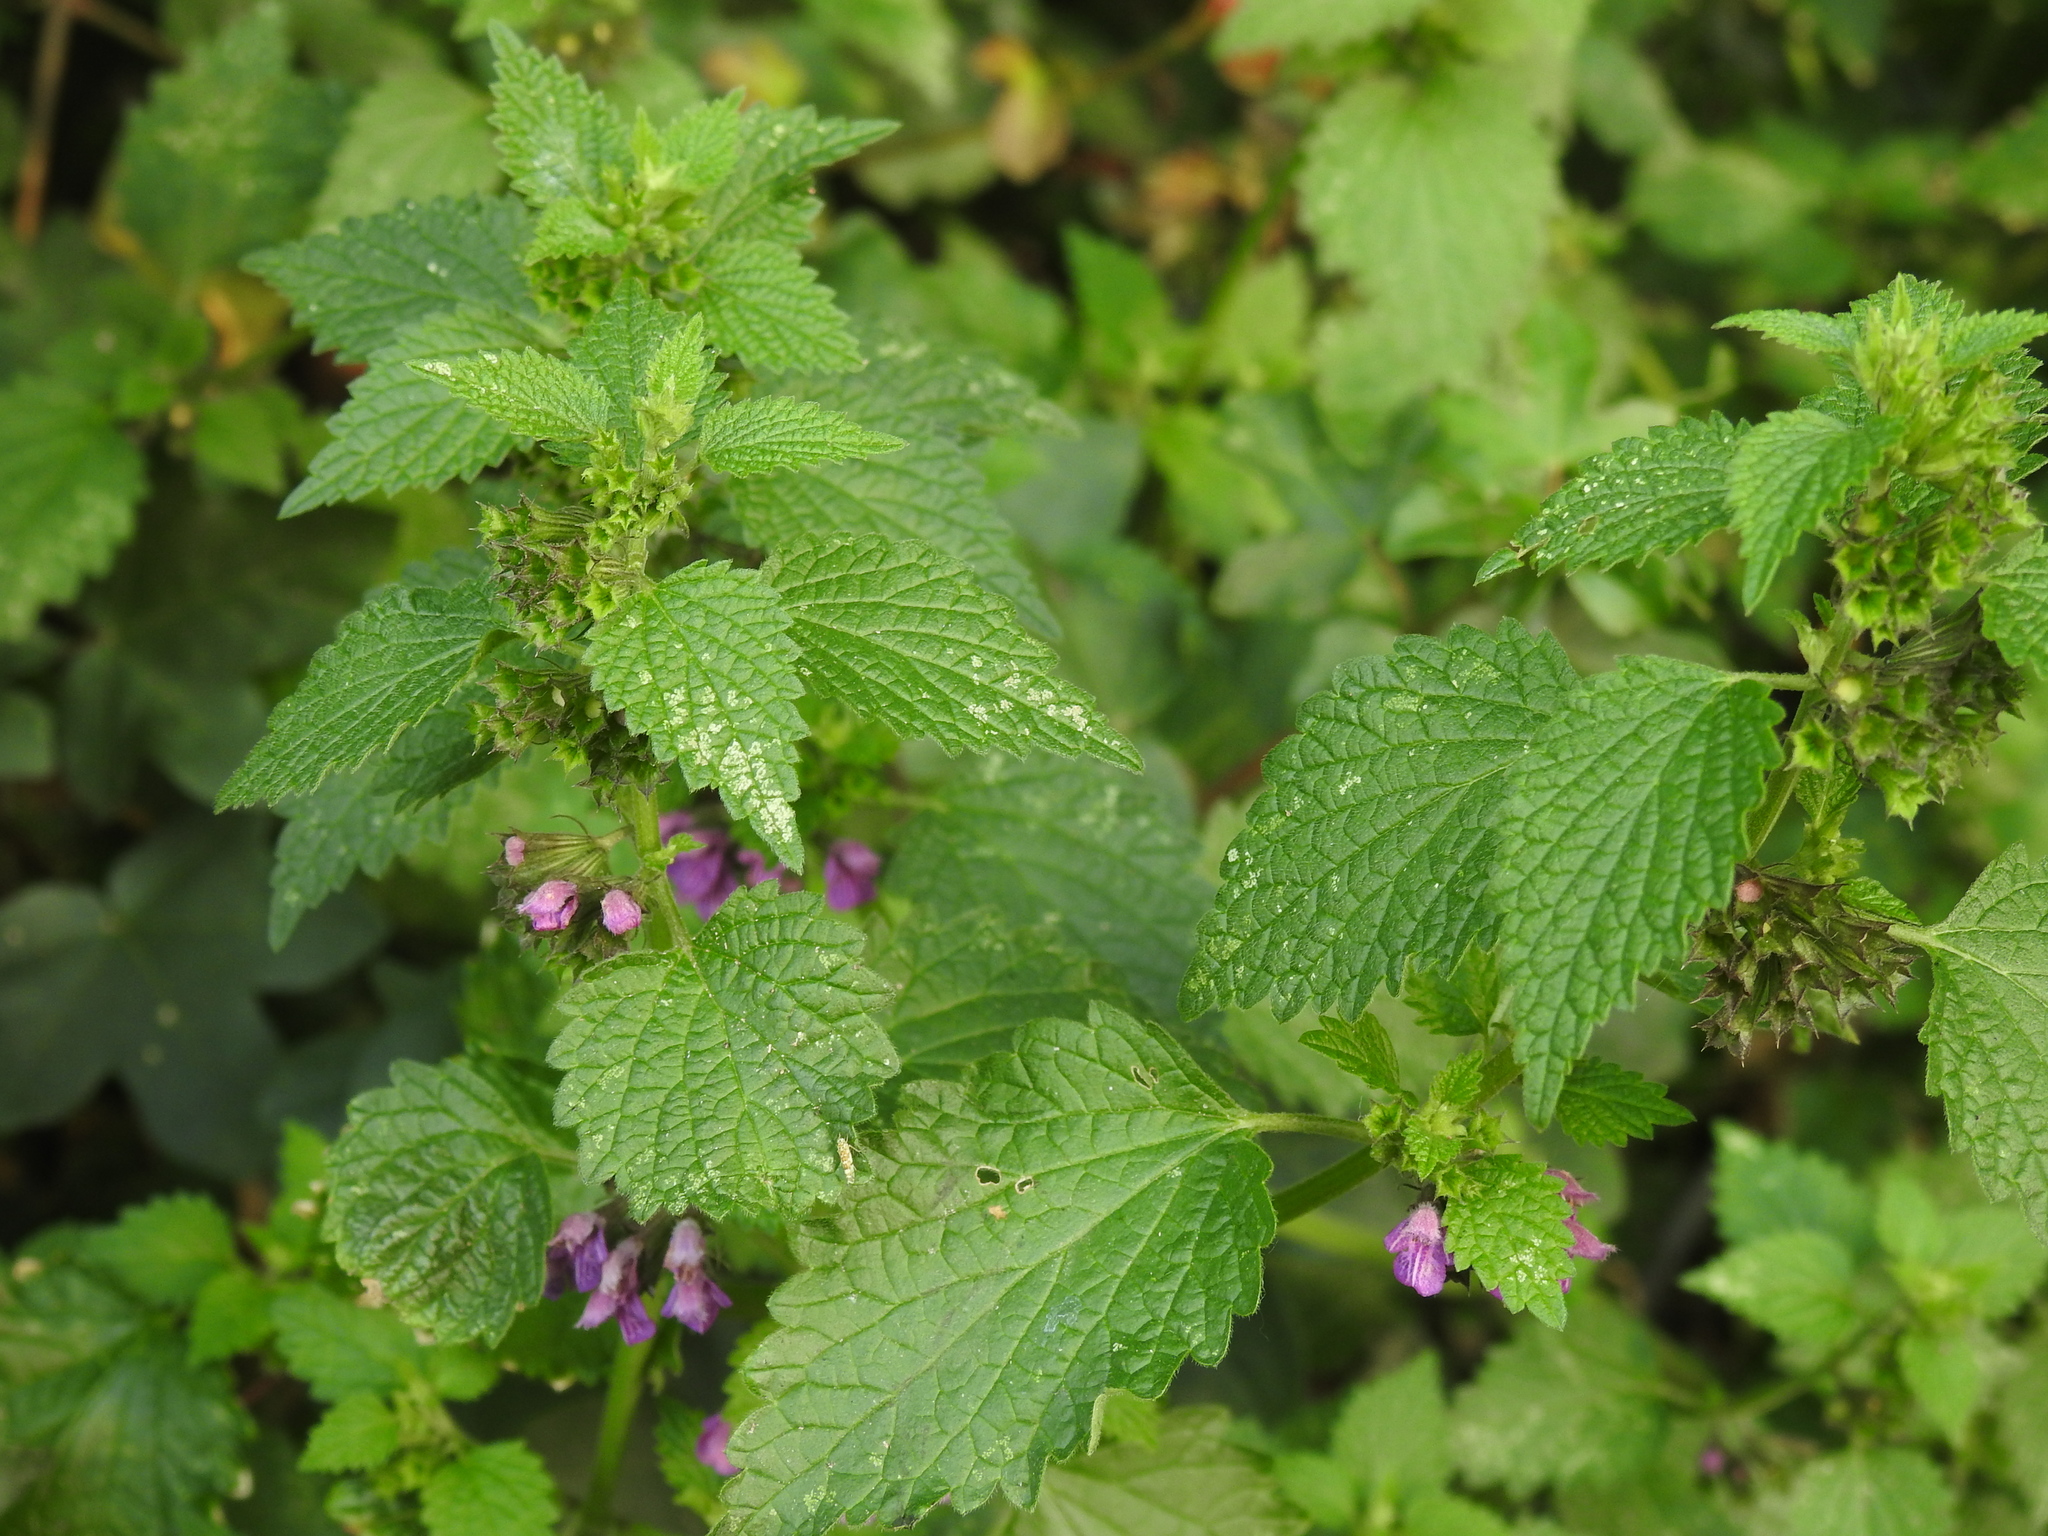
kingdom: Plantae
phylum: Tracheophyta
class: Magnoliopsida
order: Lamiales
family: Lamiaceae
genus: Ballota
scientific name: Ballota nigra
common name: Black horehound
